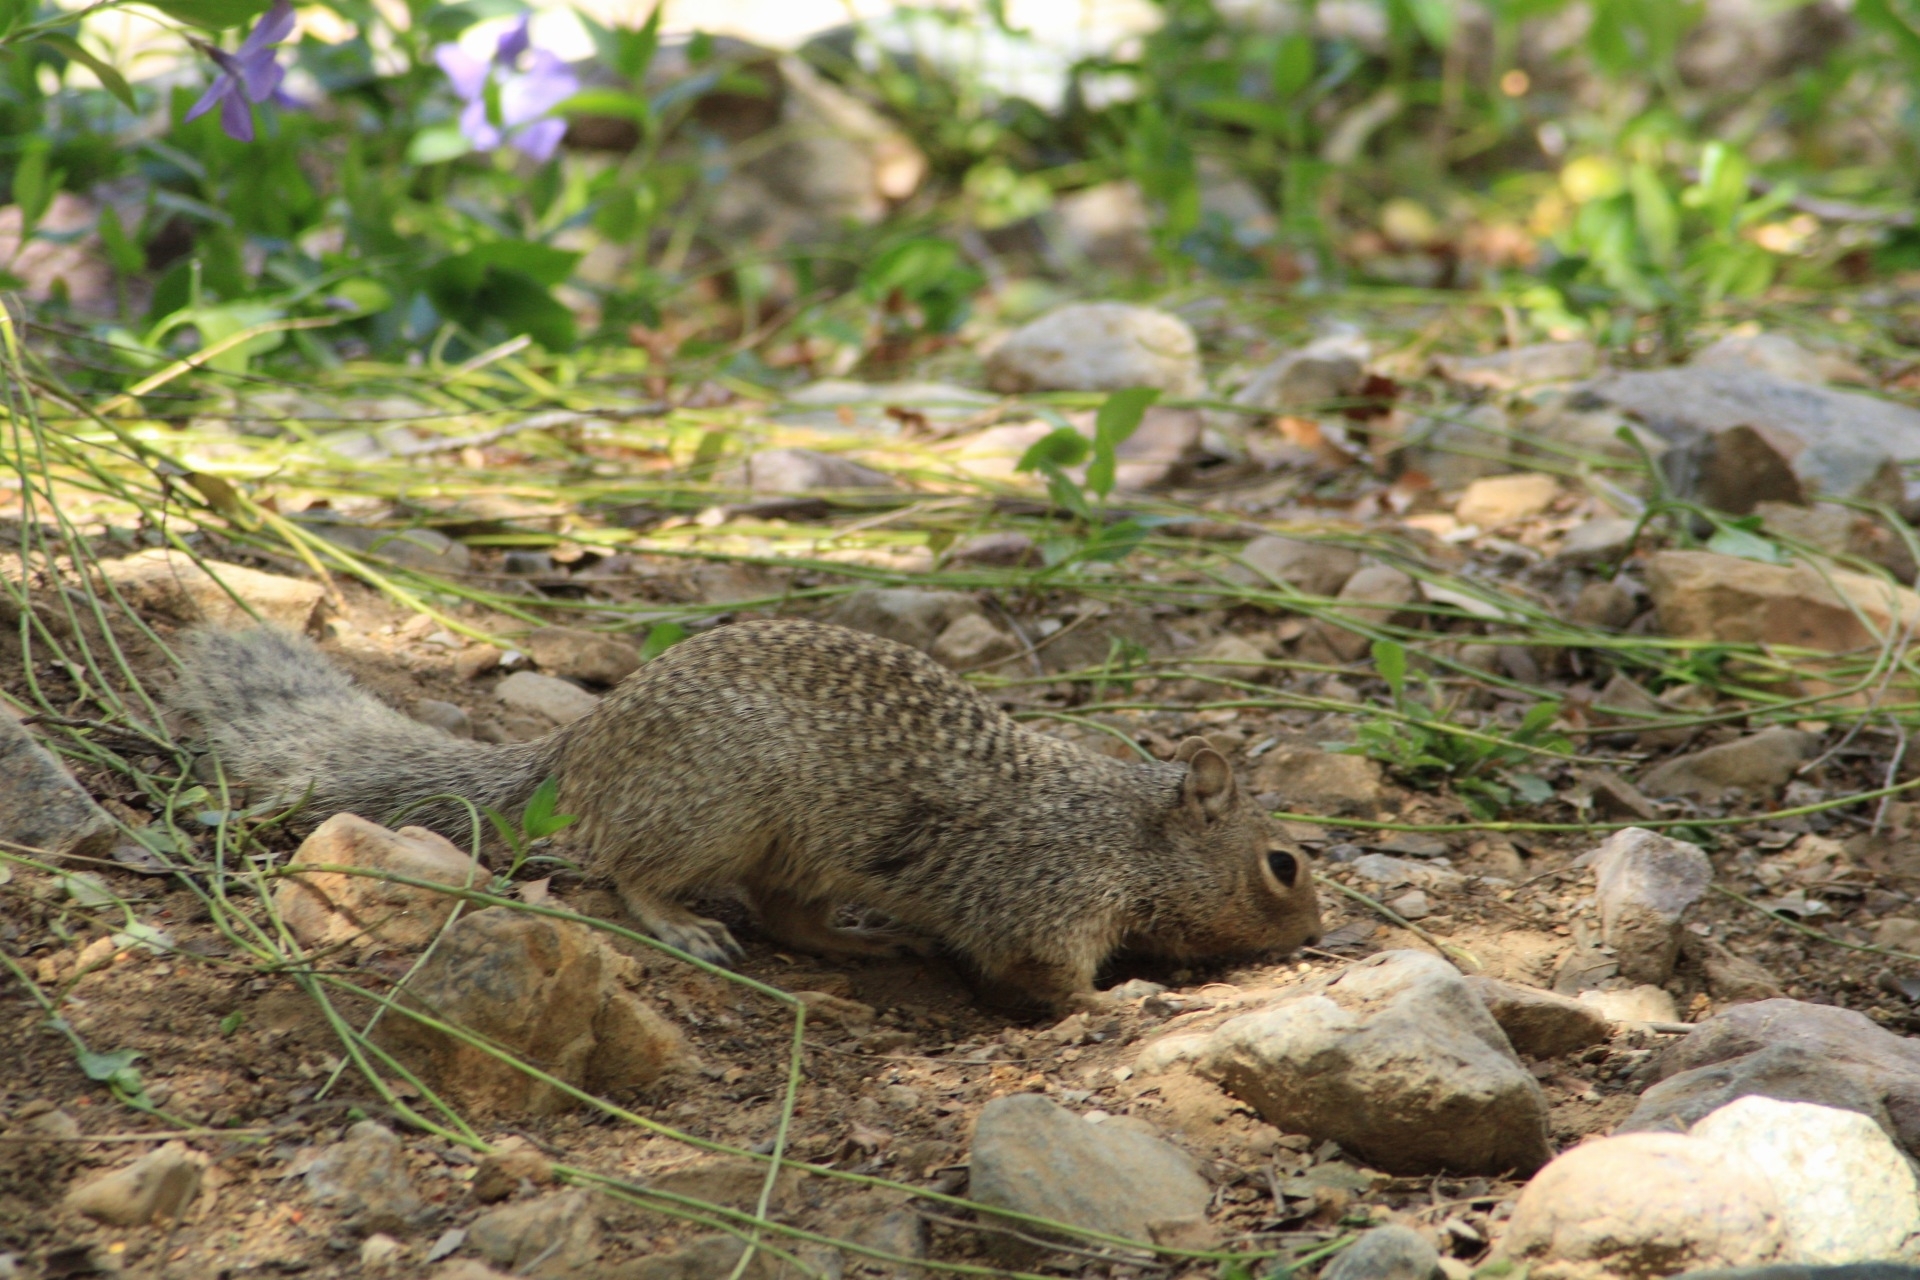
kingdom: Animalia
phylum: Chordata
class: Mammalia
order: Rodentia
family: Sciuridae
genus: Otospermophilus
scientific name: Otospermophilus variegatus
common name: Rock squirrel
